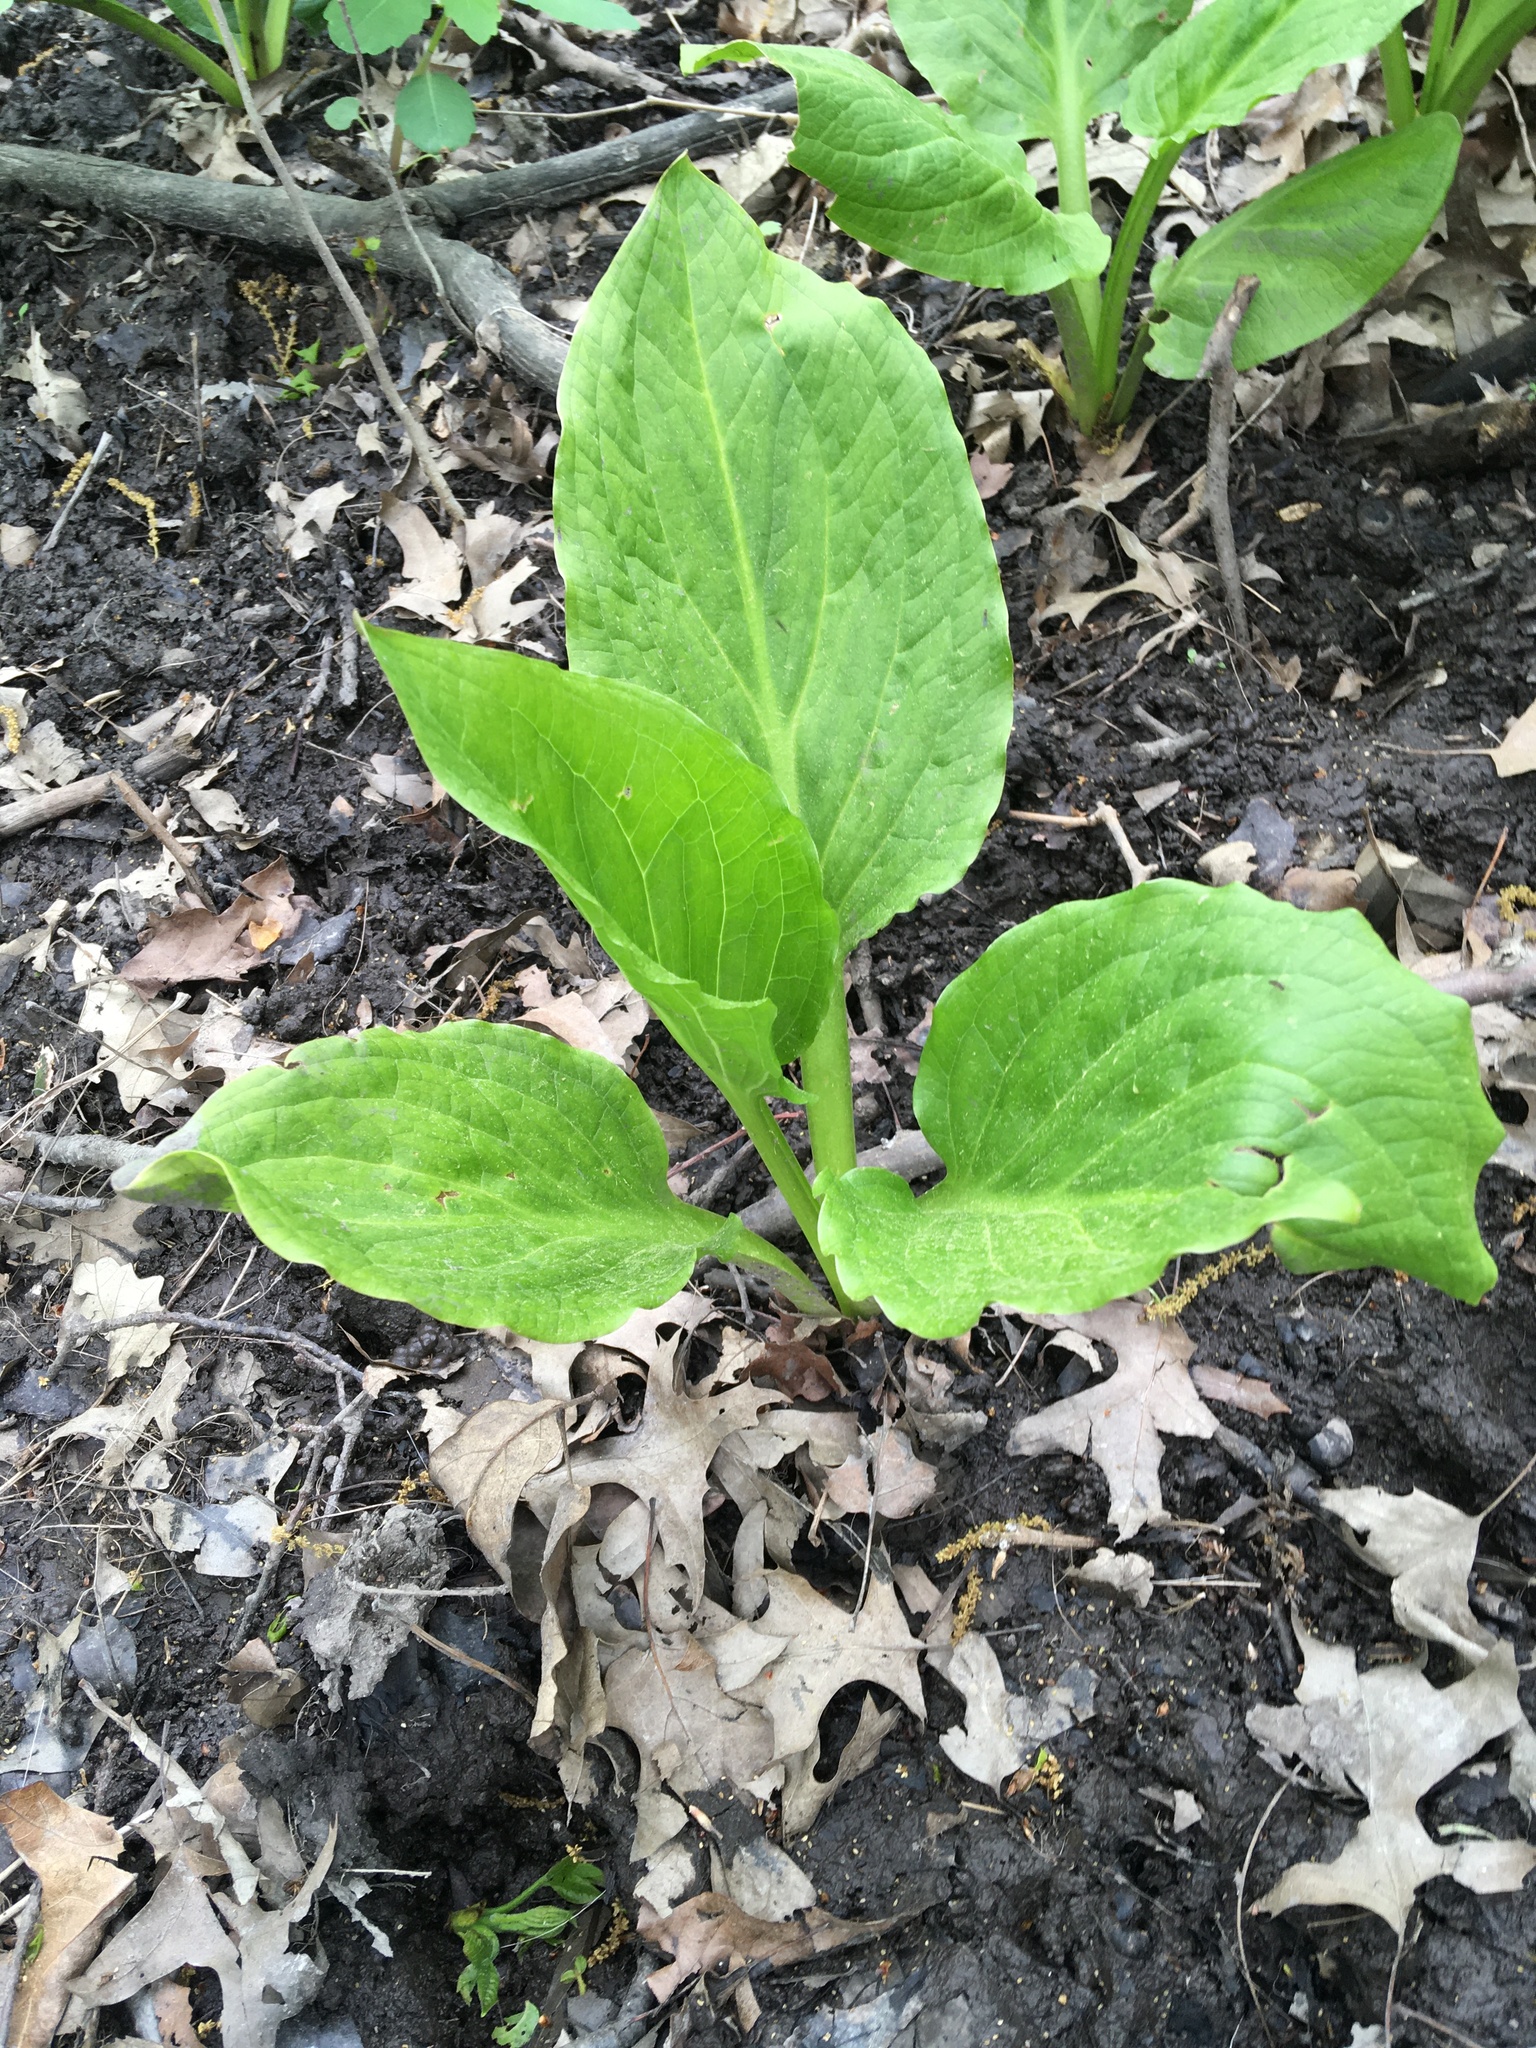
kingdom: Plantae
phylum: Tracheophyta
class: Liliopsida
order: Alismatales
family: Araceae
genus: Symplocarpus
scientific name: Symplocarpus foetidus
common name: Eastern skunk cabbage
